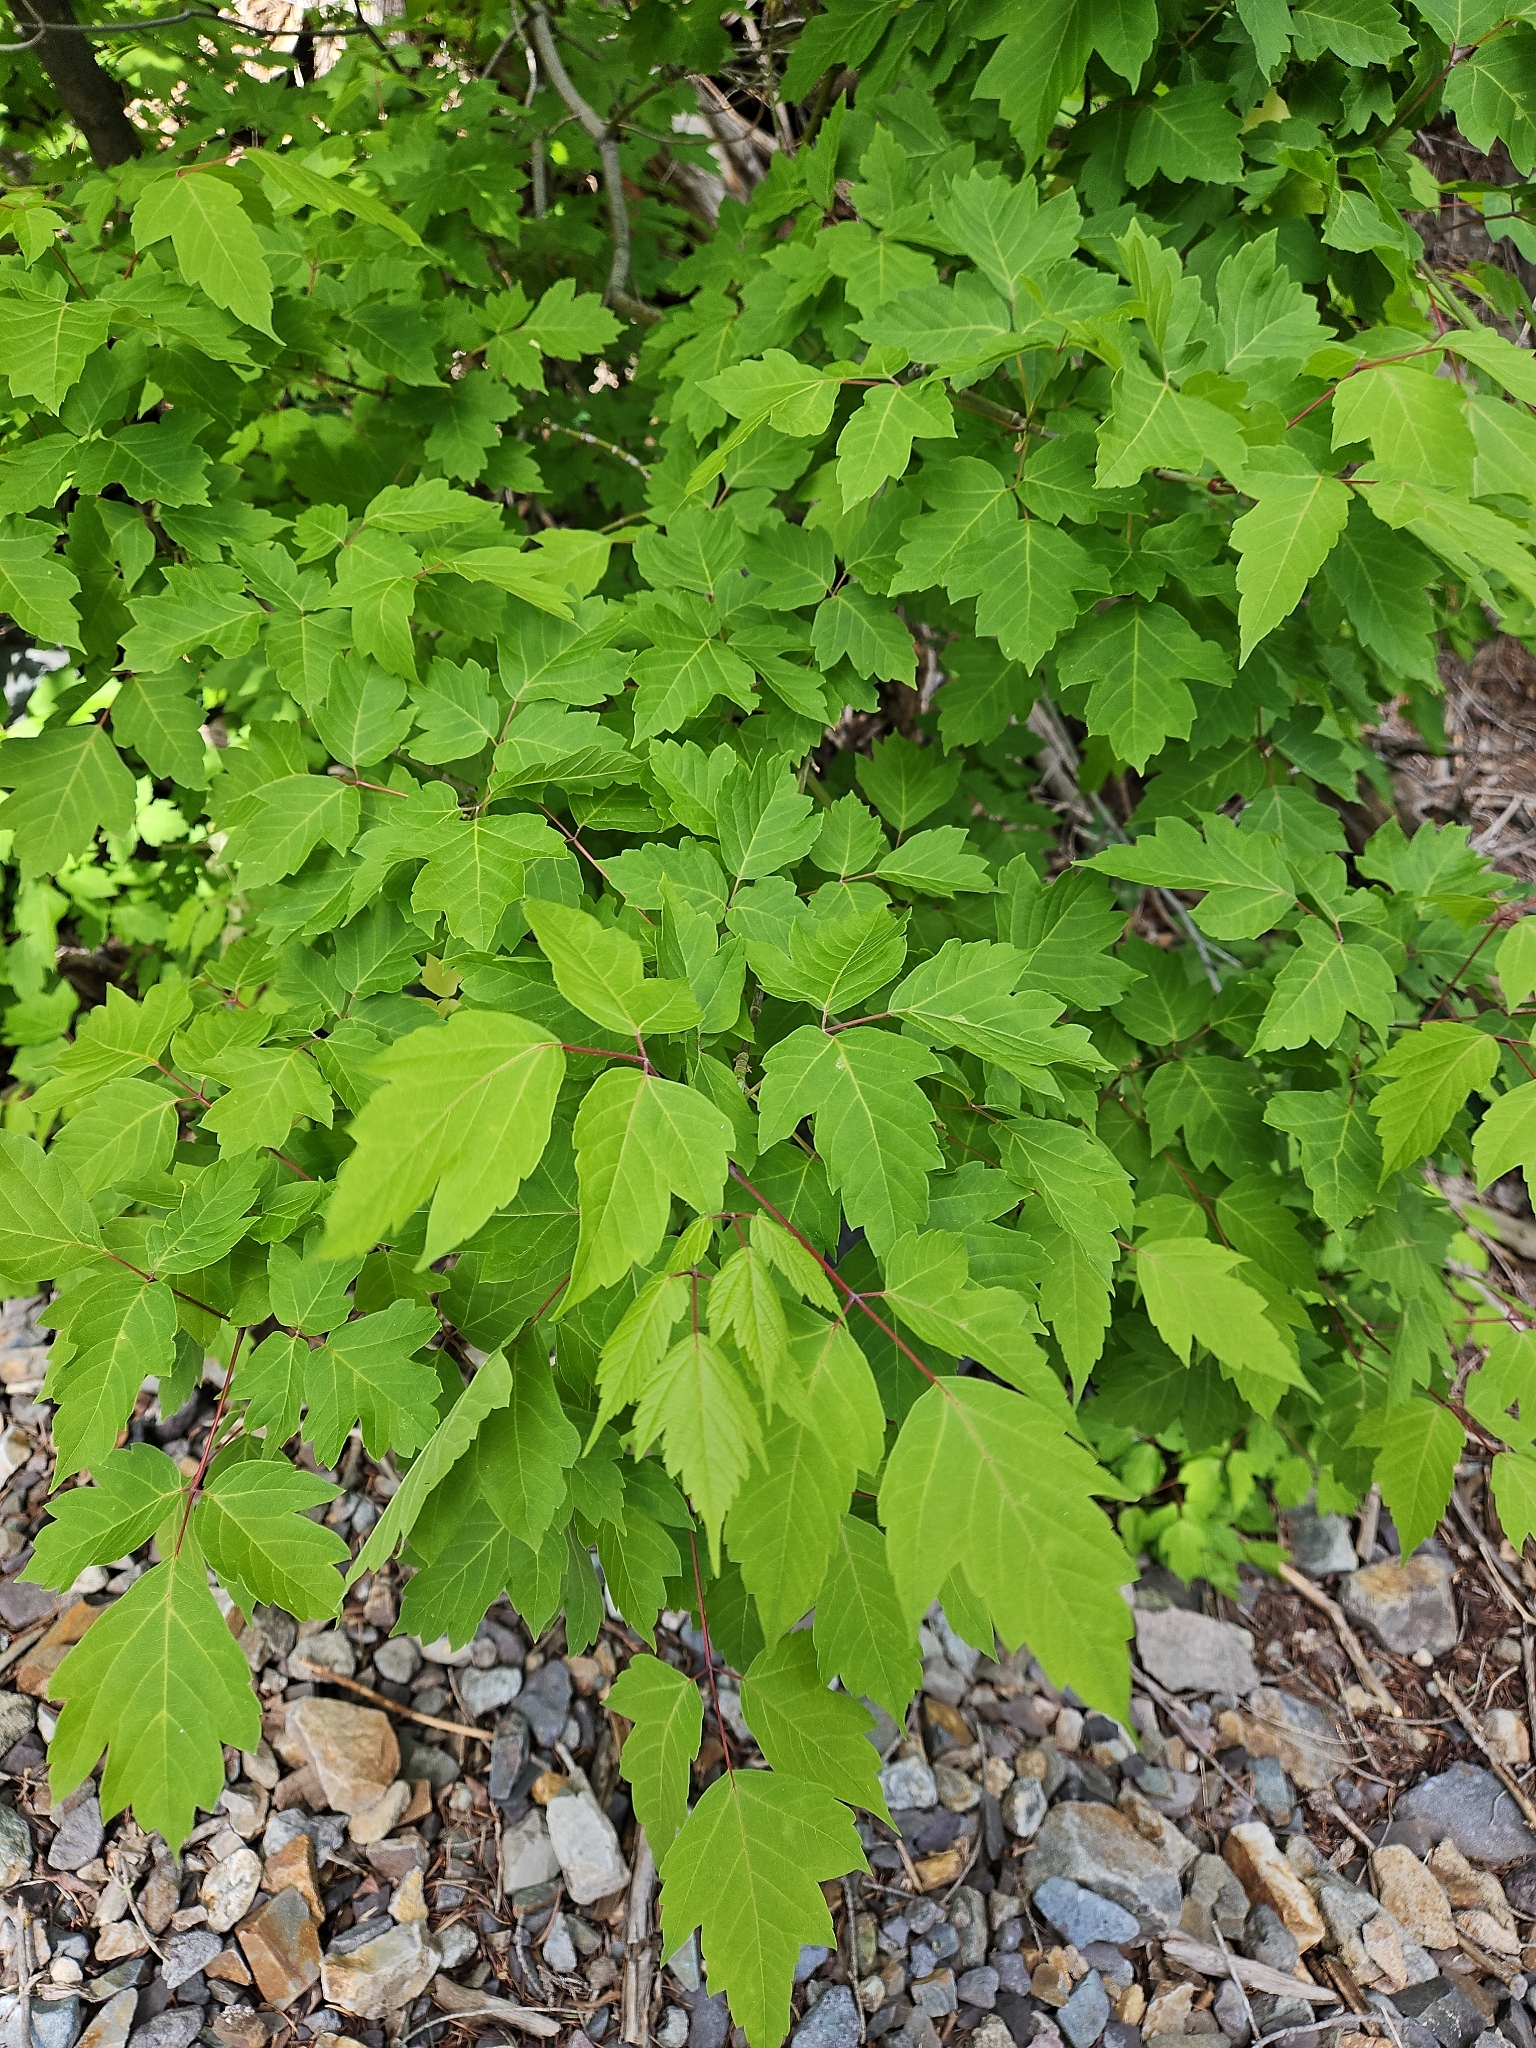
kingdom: Plantae
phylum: Tracheophyta
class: Magnoliopsida
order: Sapindales
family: Sapindaceae
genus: Acer
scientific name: Acer negundo
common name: Ashleaf maple
